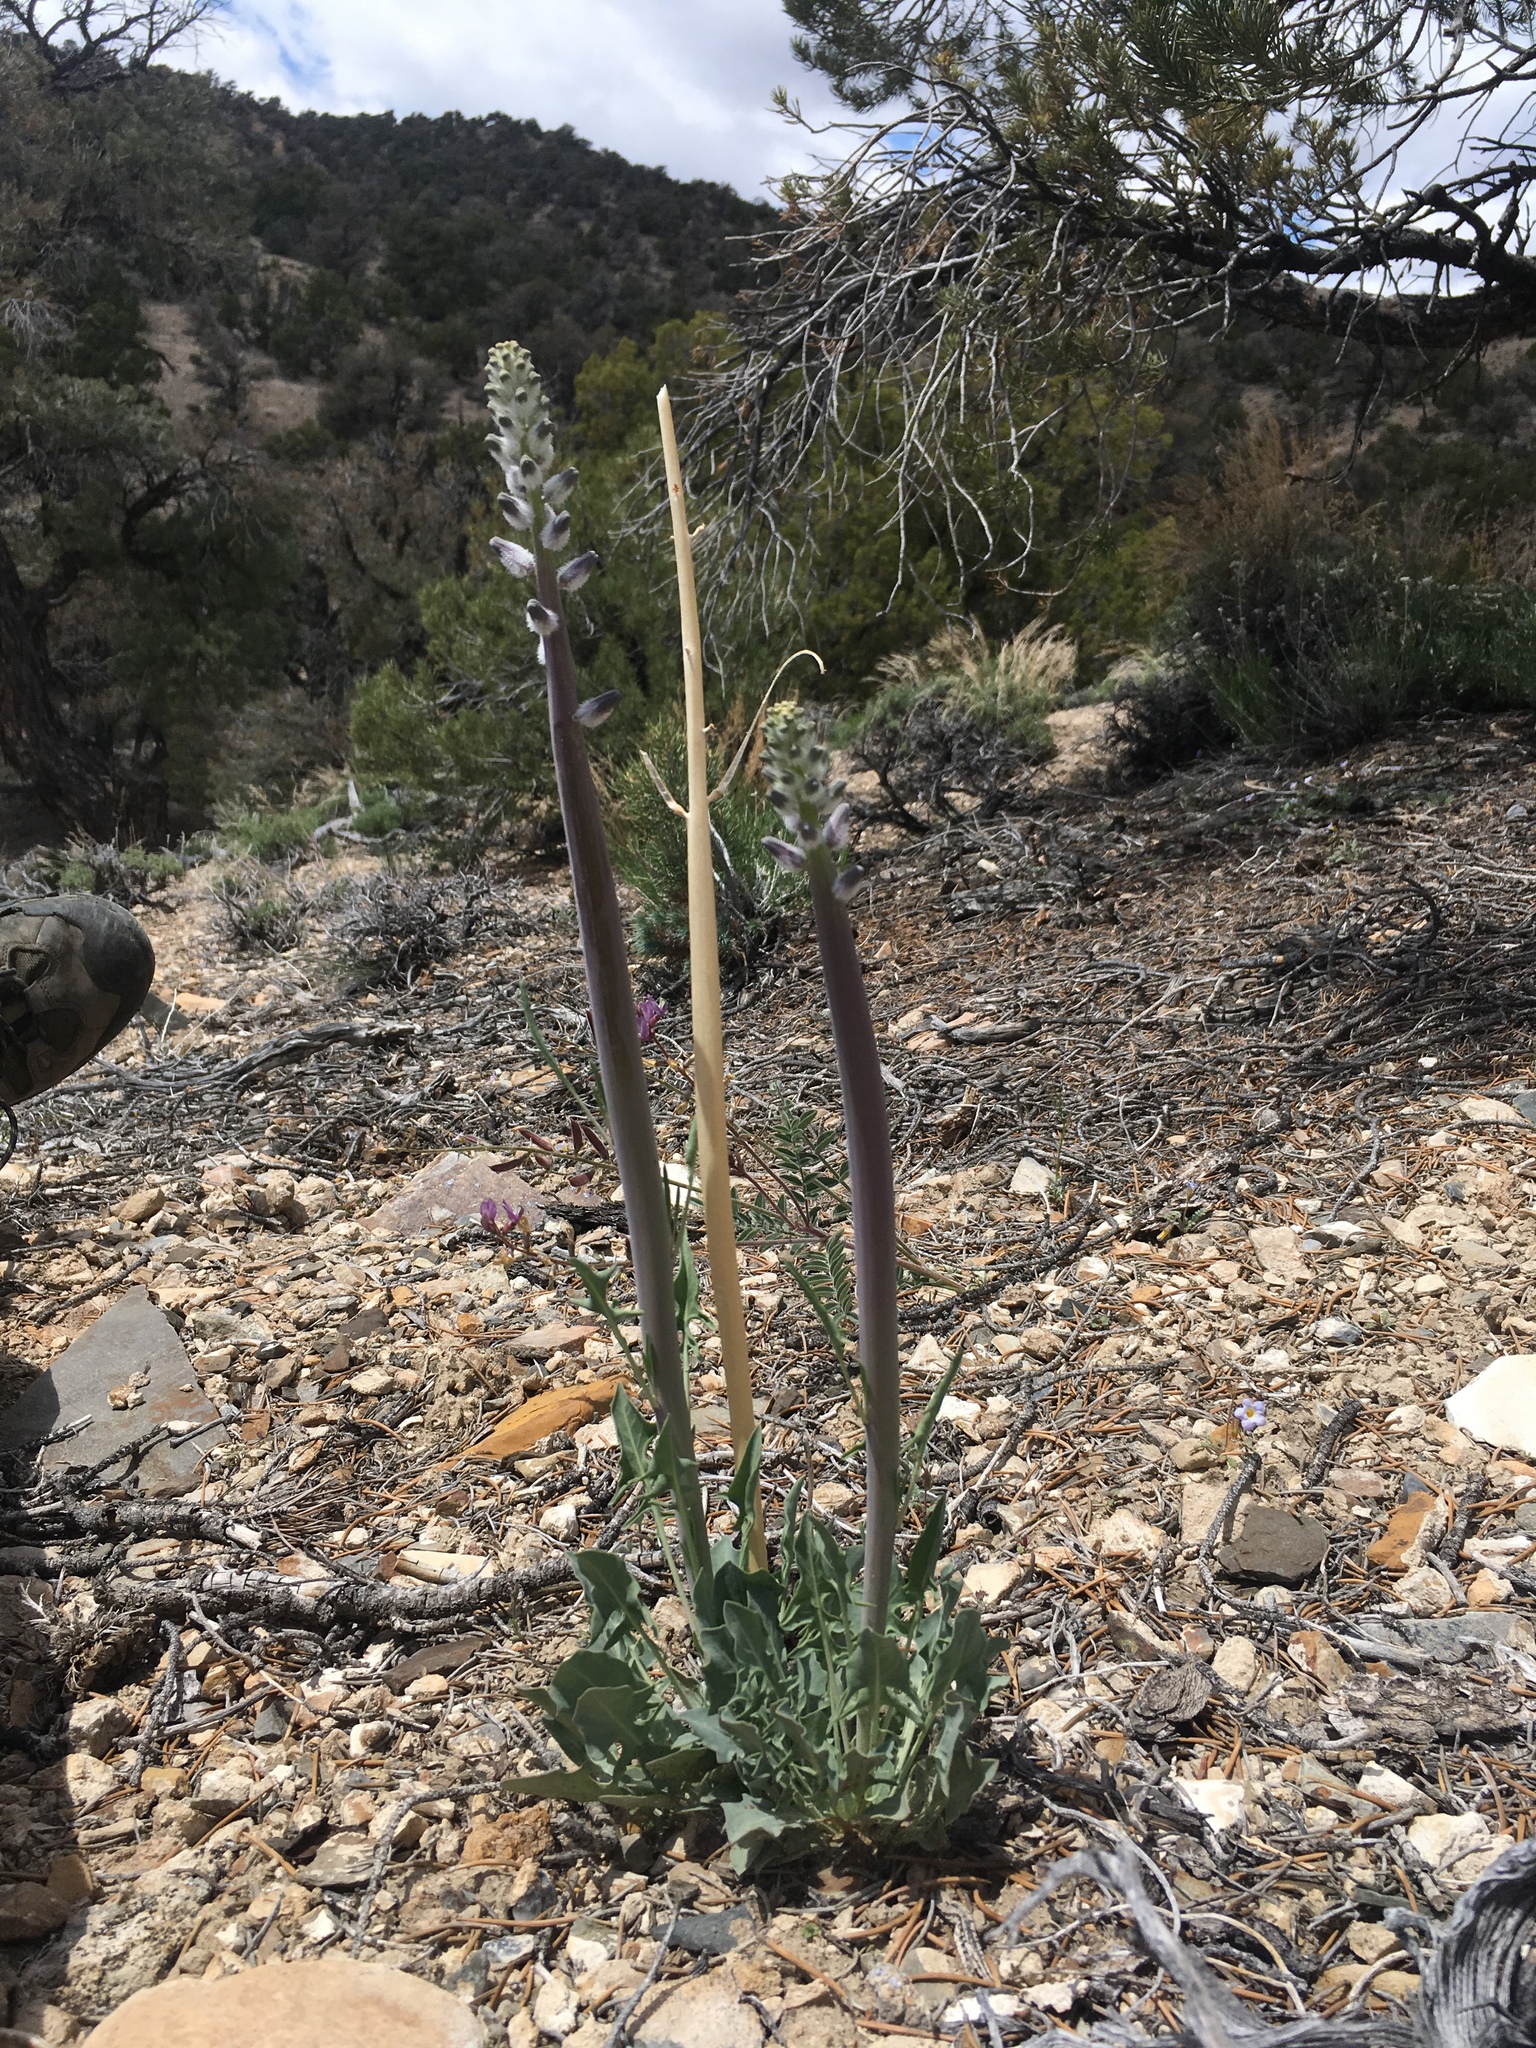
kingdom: Plantae
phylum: Tracheophyta
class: Magnoliopsida
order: Brassicales
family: Brassicaceae
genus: Streptanthus
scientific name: Streptanthus crassicaulis
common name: Thick-stem wild cabbage
